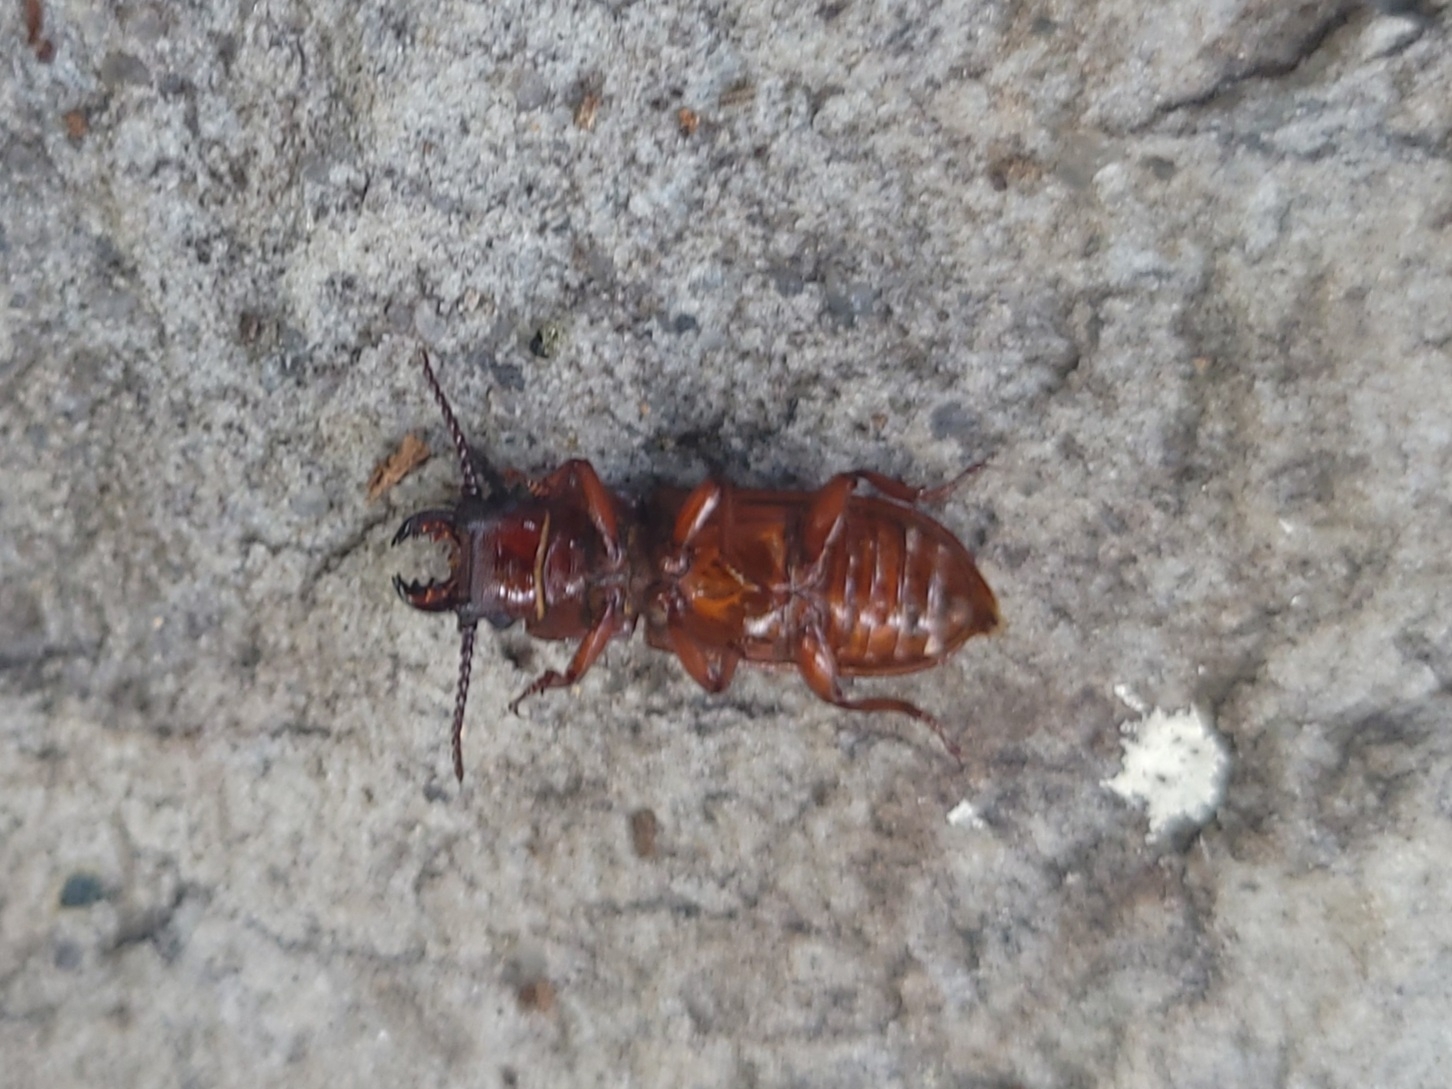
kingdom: Animalia
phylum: Arthropoda
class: Insecta
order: Coleoptera
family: Cerambycidae
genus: Neandra
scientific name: Neandra brunnea
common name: Pole borer
